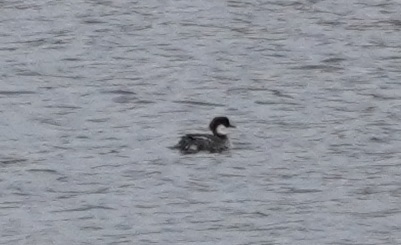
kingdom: Animalia
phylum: Chordata
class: Aves
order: Anseriformes
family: Anatidae
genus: Mergellus
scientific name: Mergellus albellus
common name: Smew
